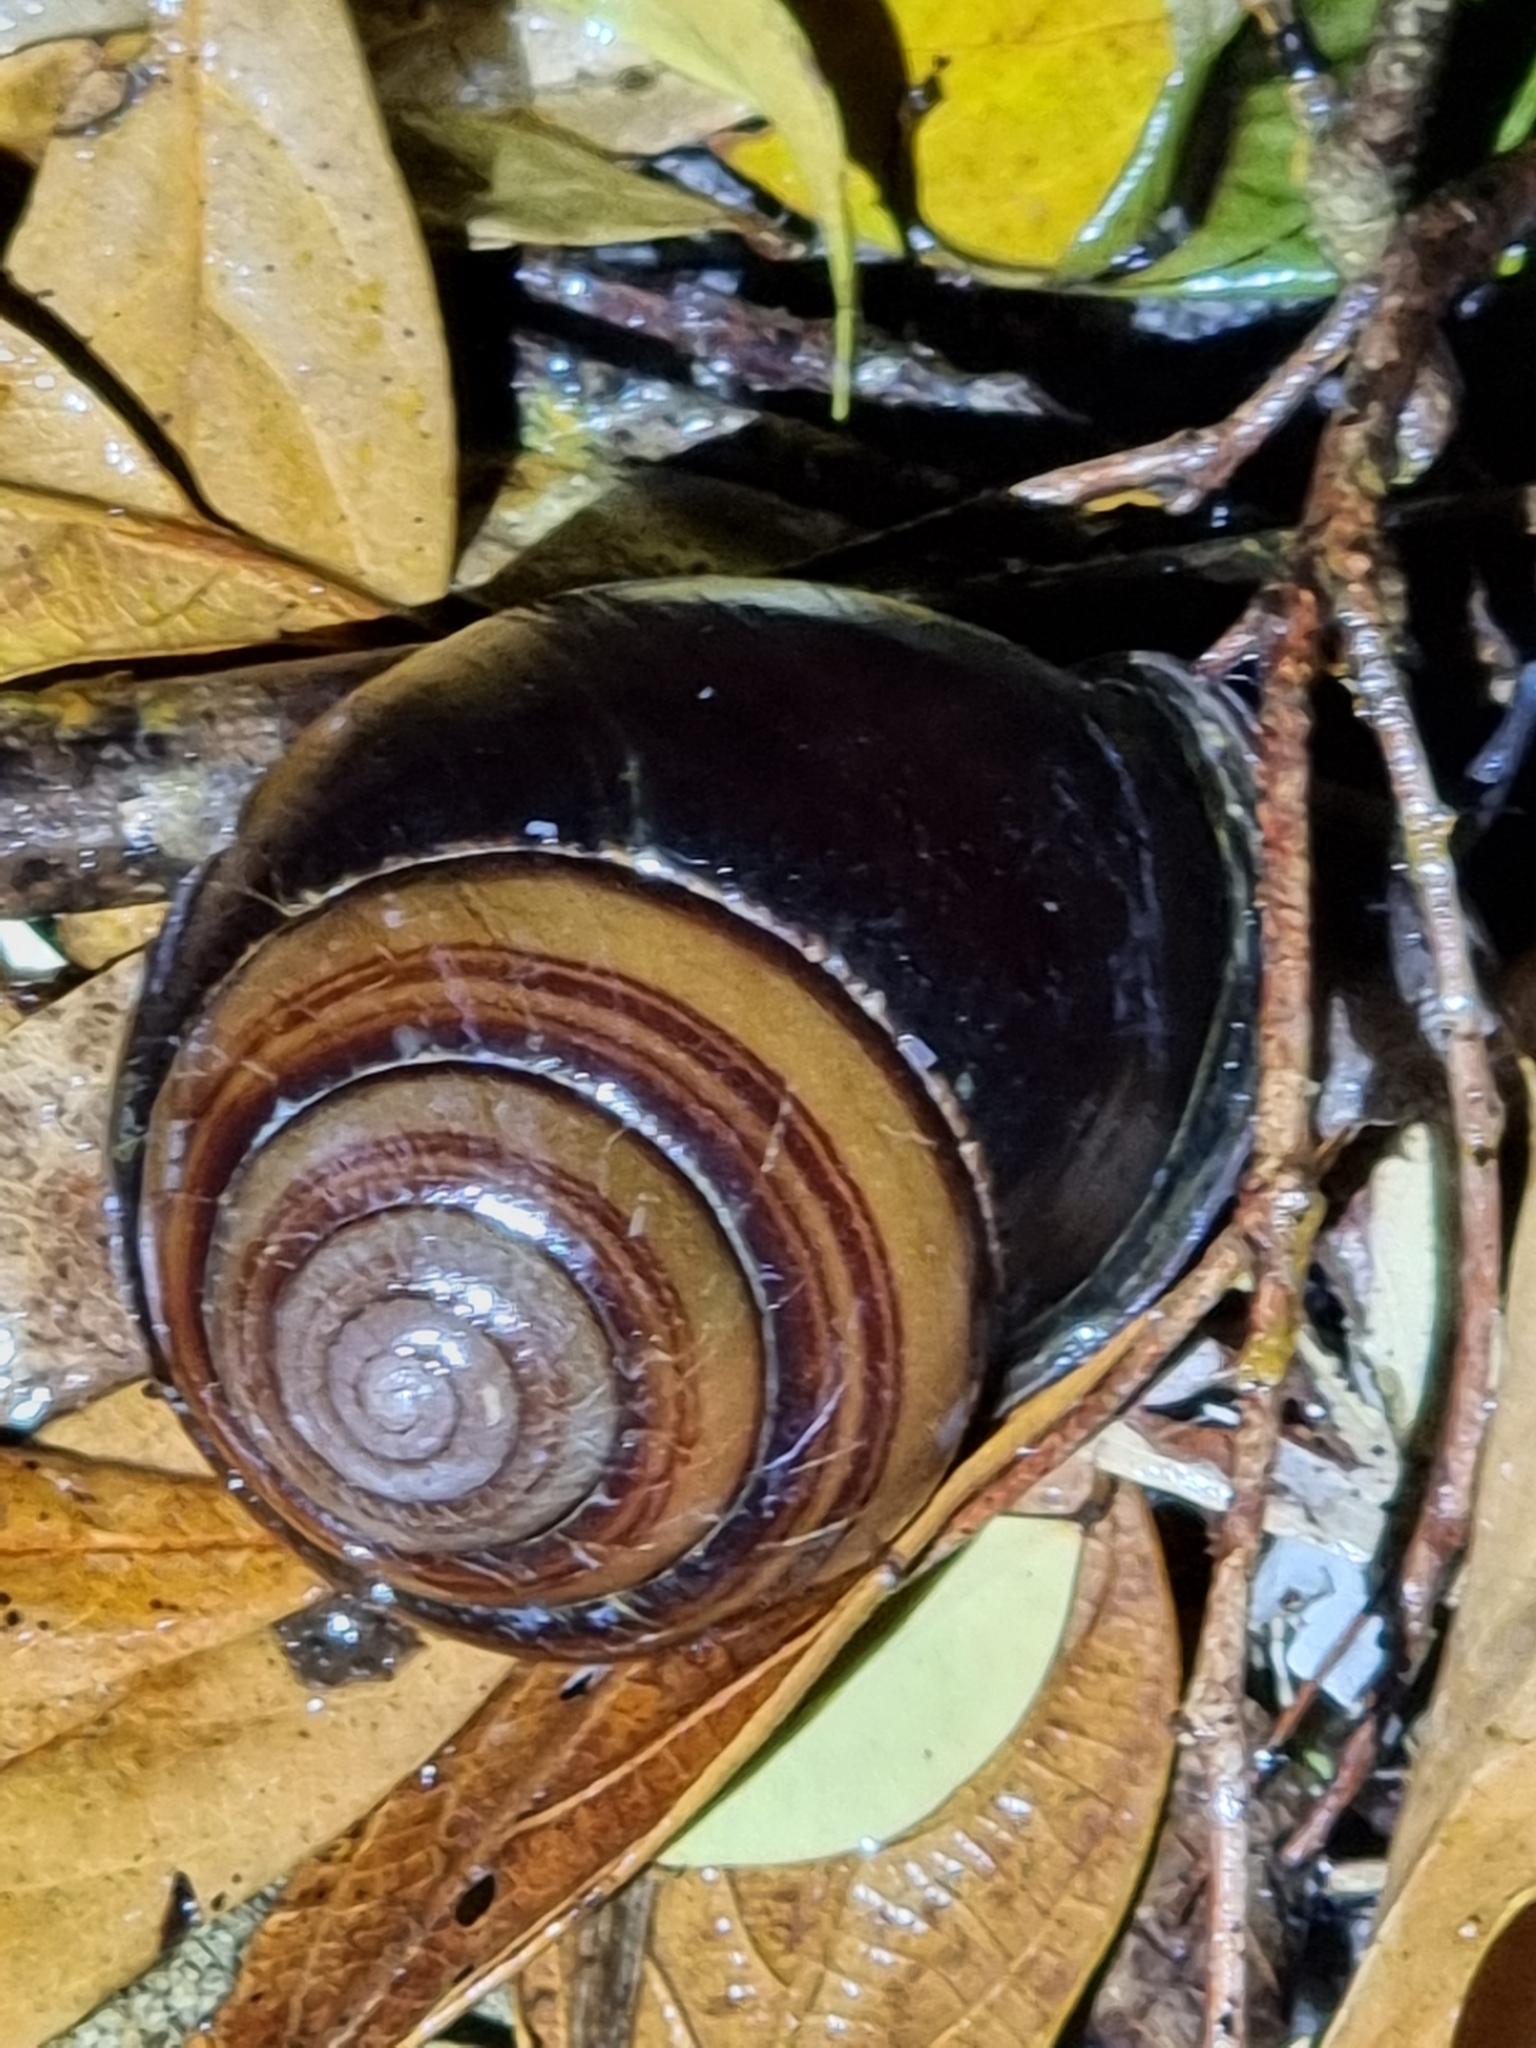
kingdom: Animalia
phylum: Mollusca
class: Gastropoda
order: Stylommatophora
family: Camaenidae
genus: Sphaerospira
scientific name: Sphaerospira fraseri
